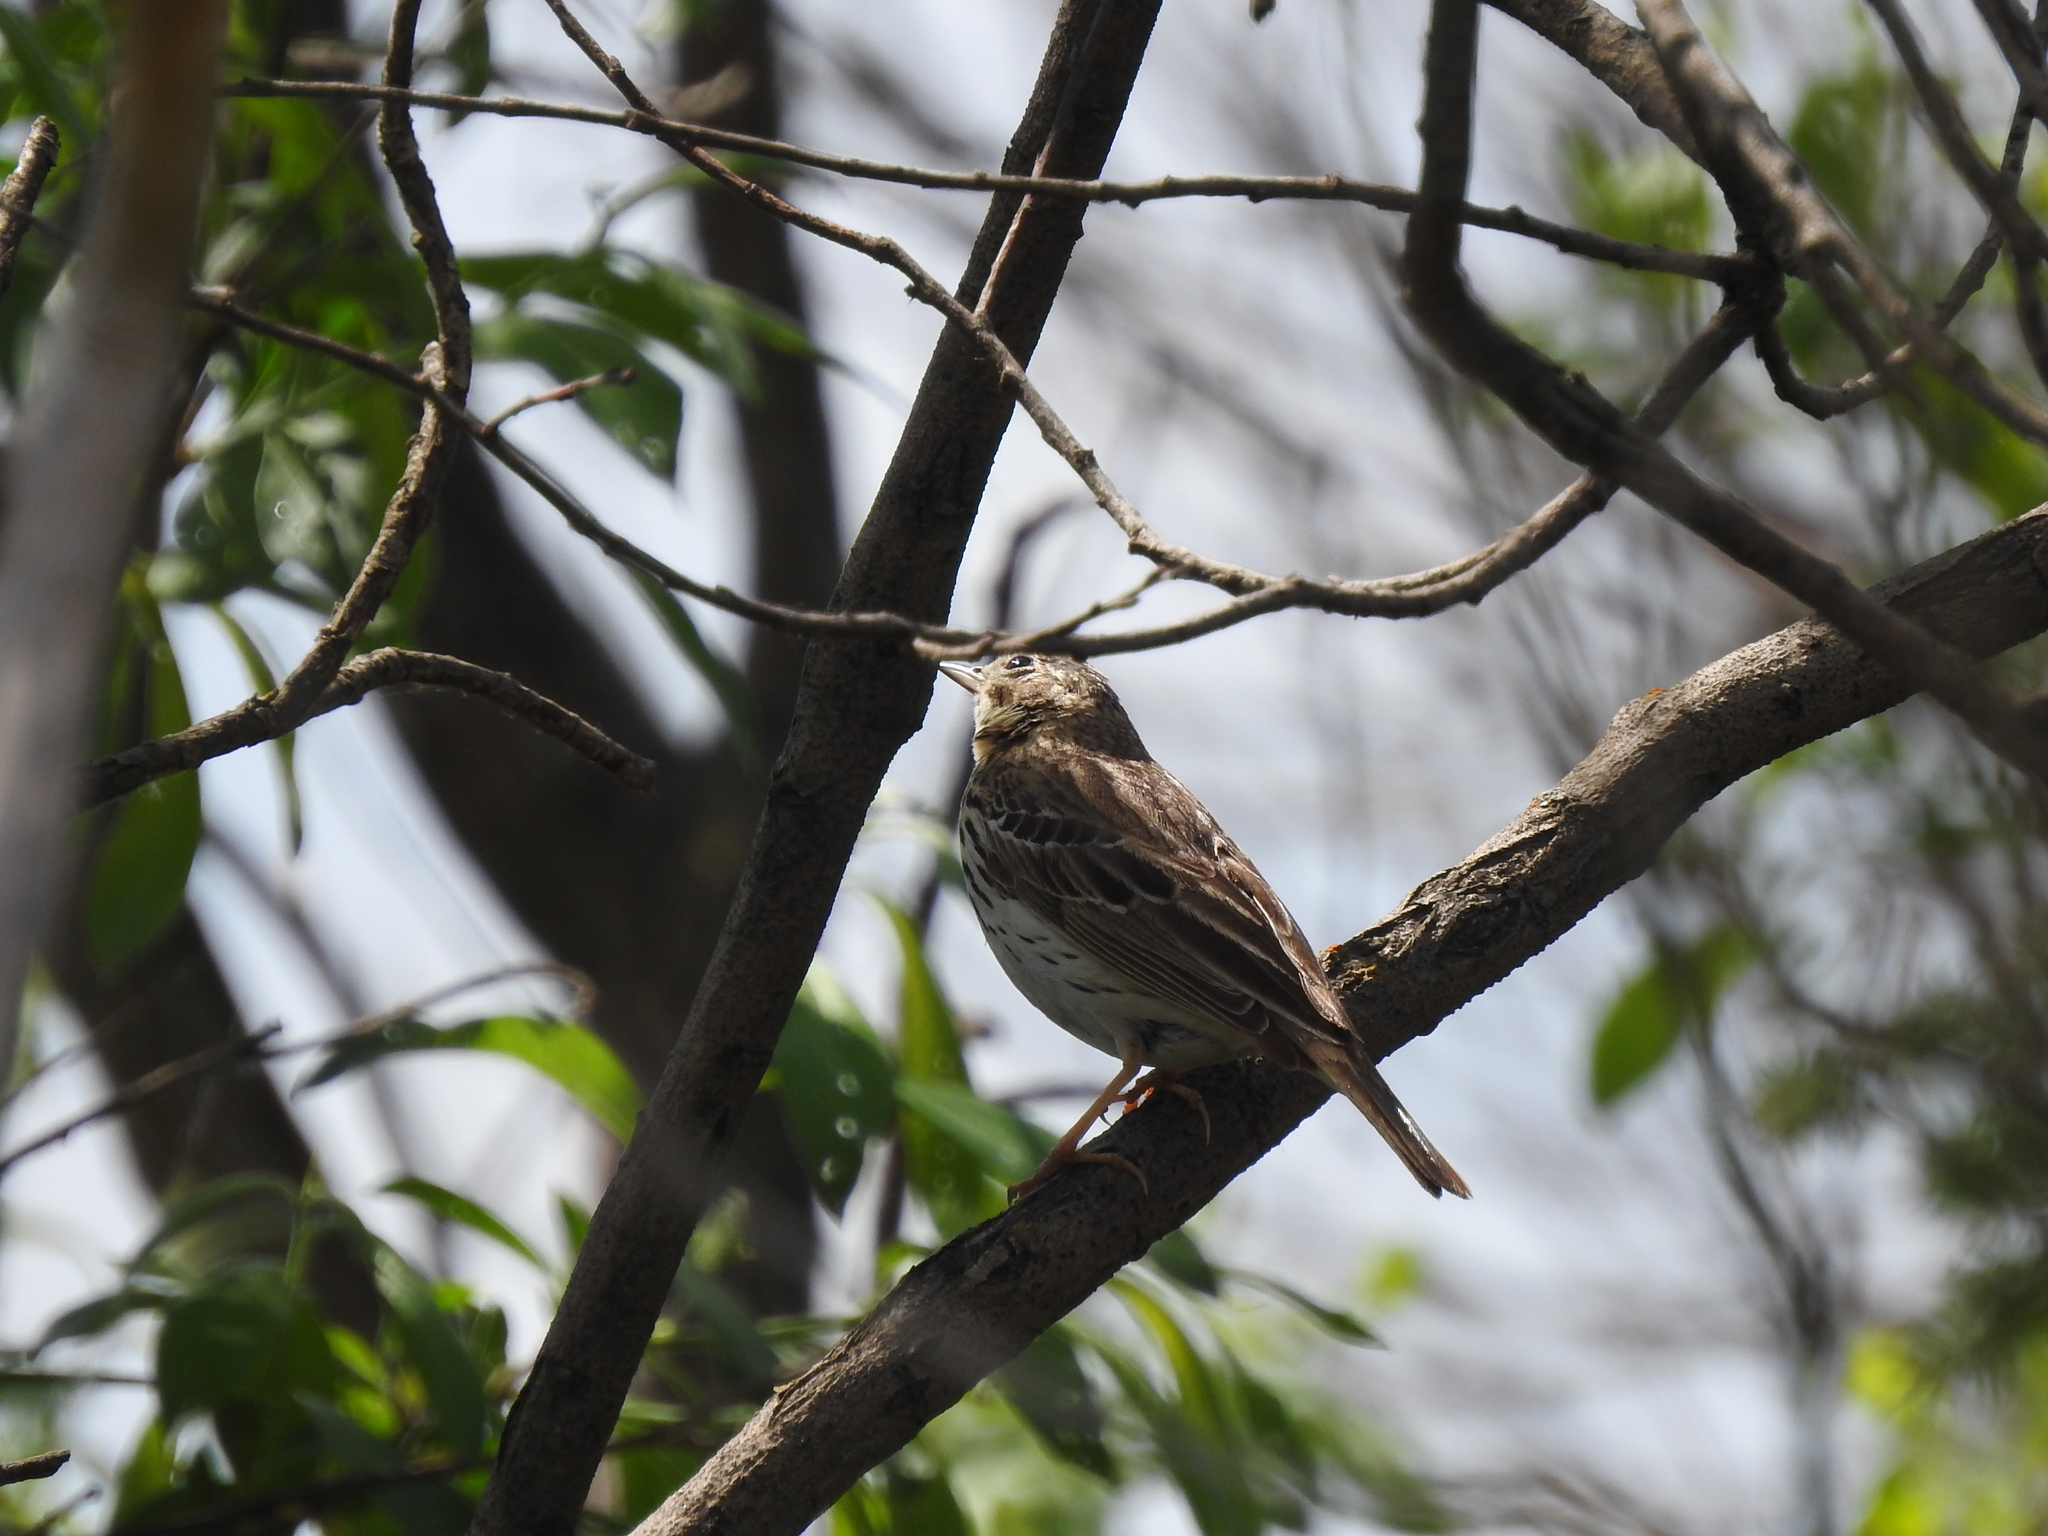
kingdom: Animalia
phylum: Chordata
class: Aves
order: Passeriformes
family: Motacillidae
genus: Anthus
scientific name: Anthus trivialis
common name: Tree pipit
